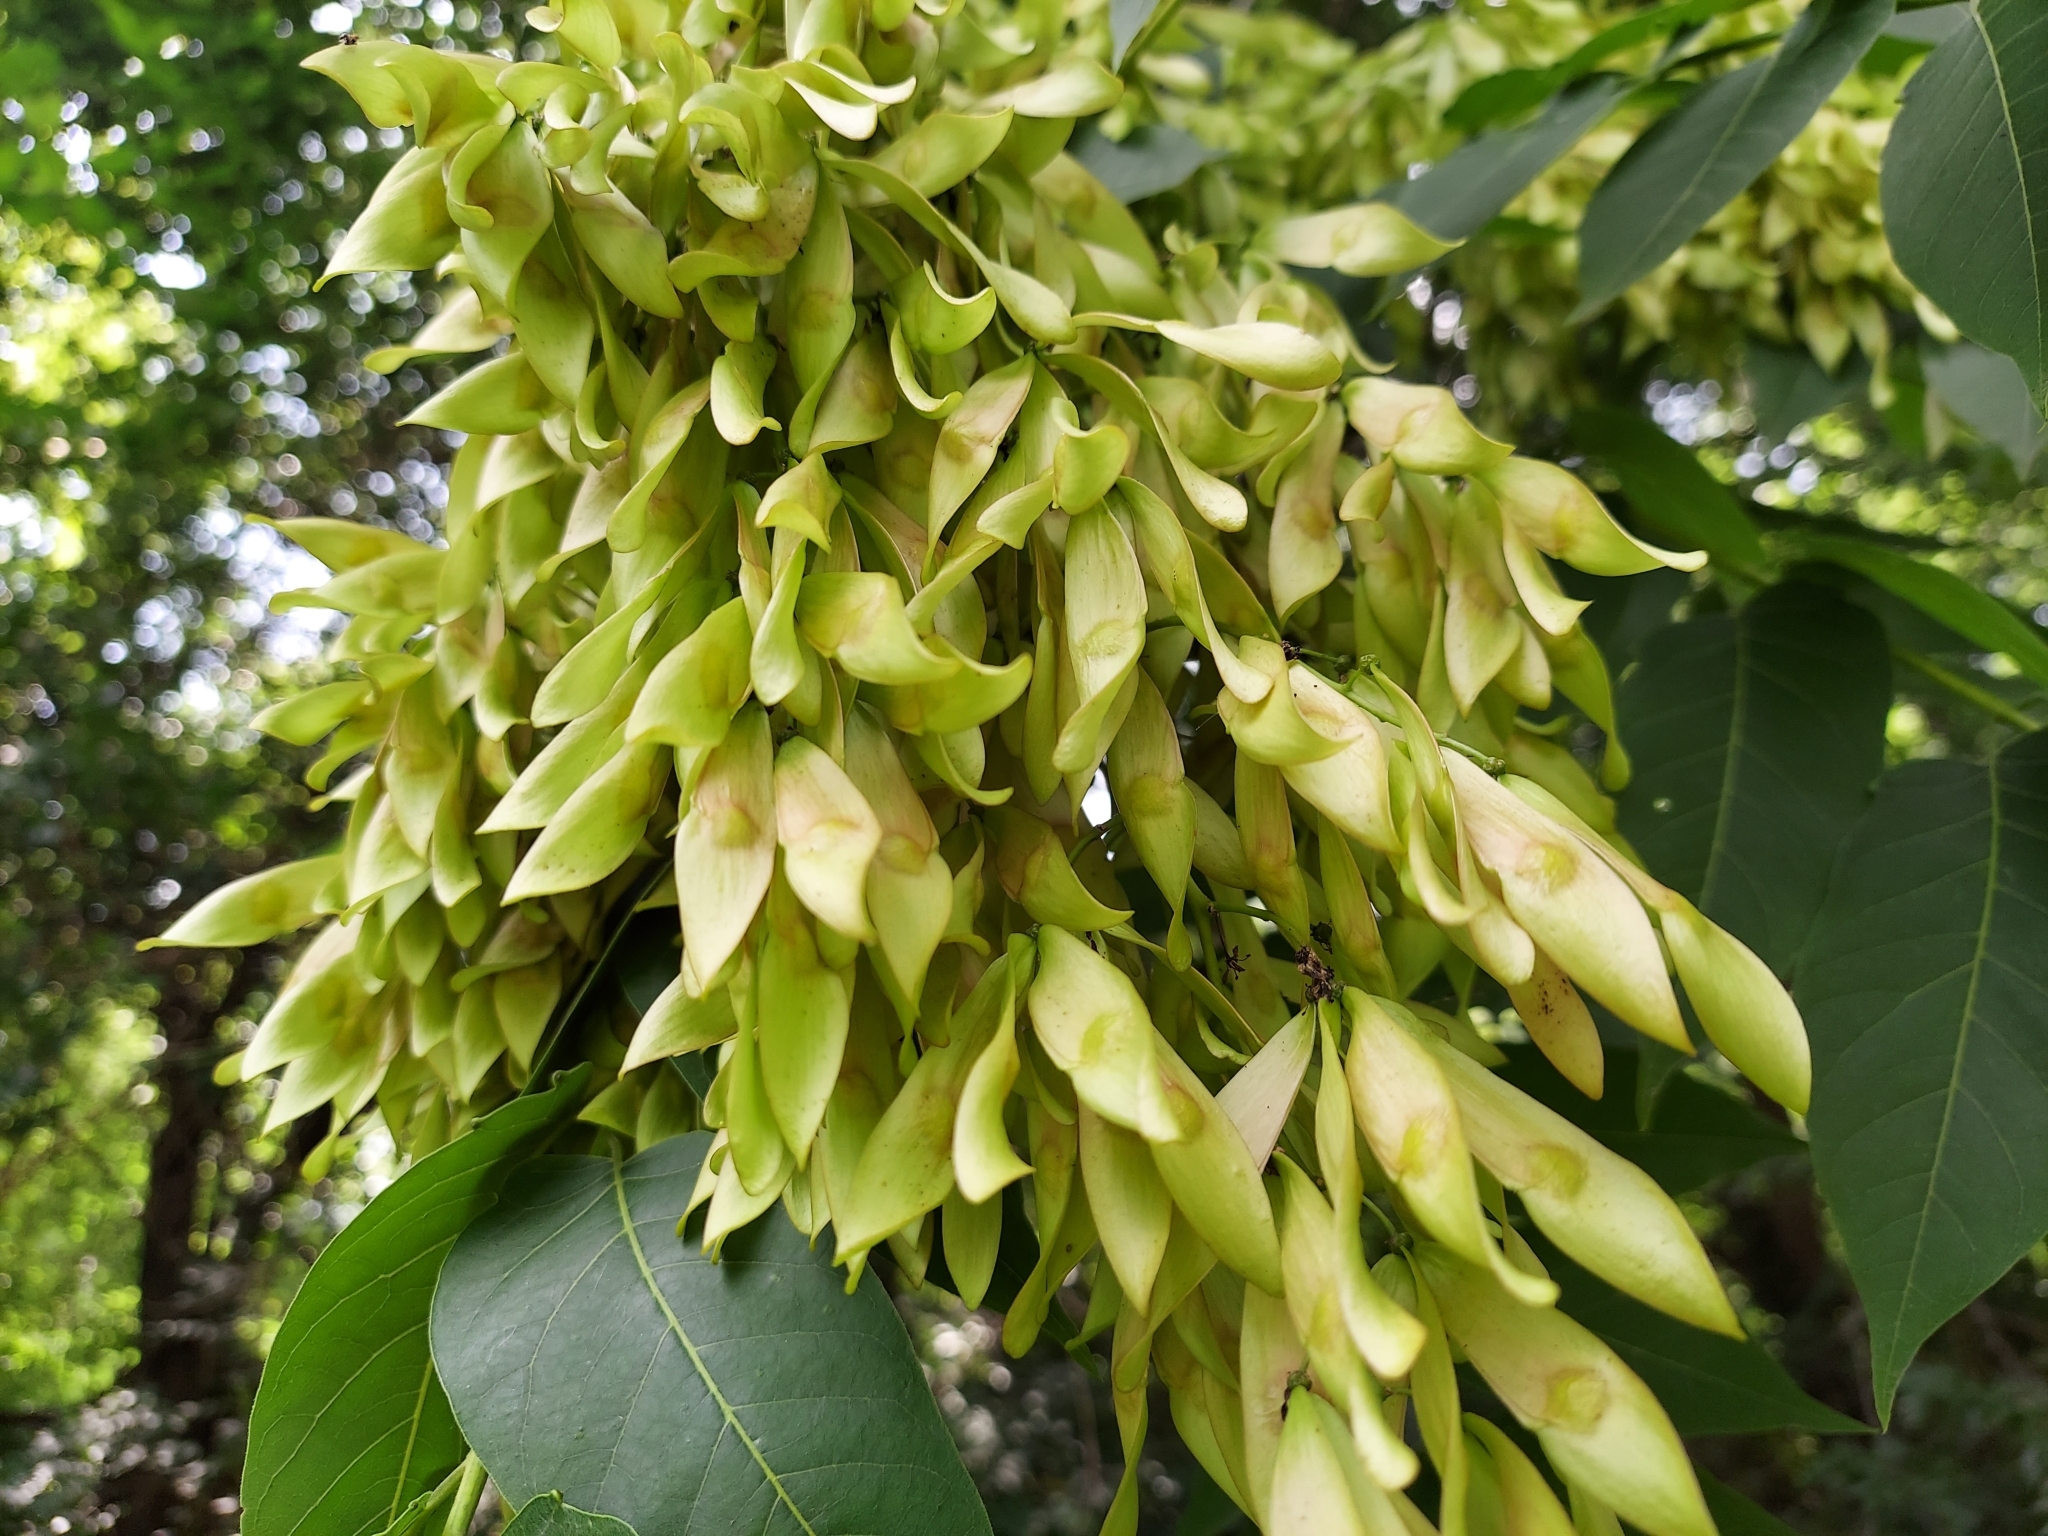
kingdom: Plantae
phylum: Tracheophyta
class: Magnoliopsida
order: Sapindales
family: Simaroubaceae
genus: Ailanthus
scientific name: Ailanthus altissima
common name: Tree-of-heaven
